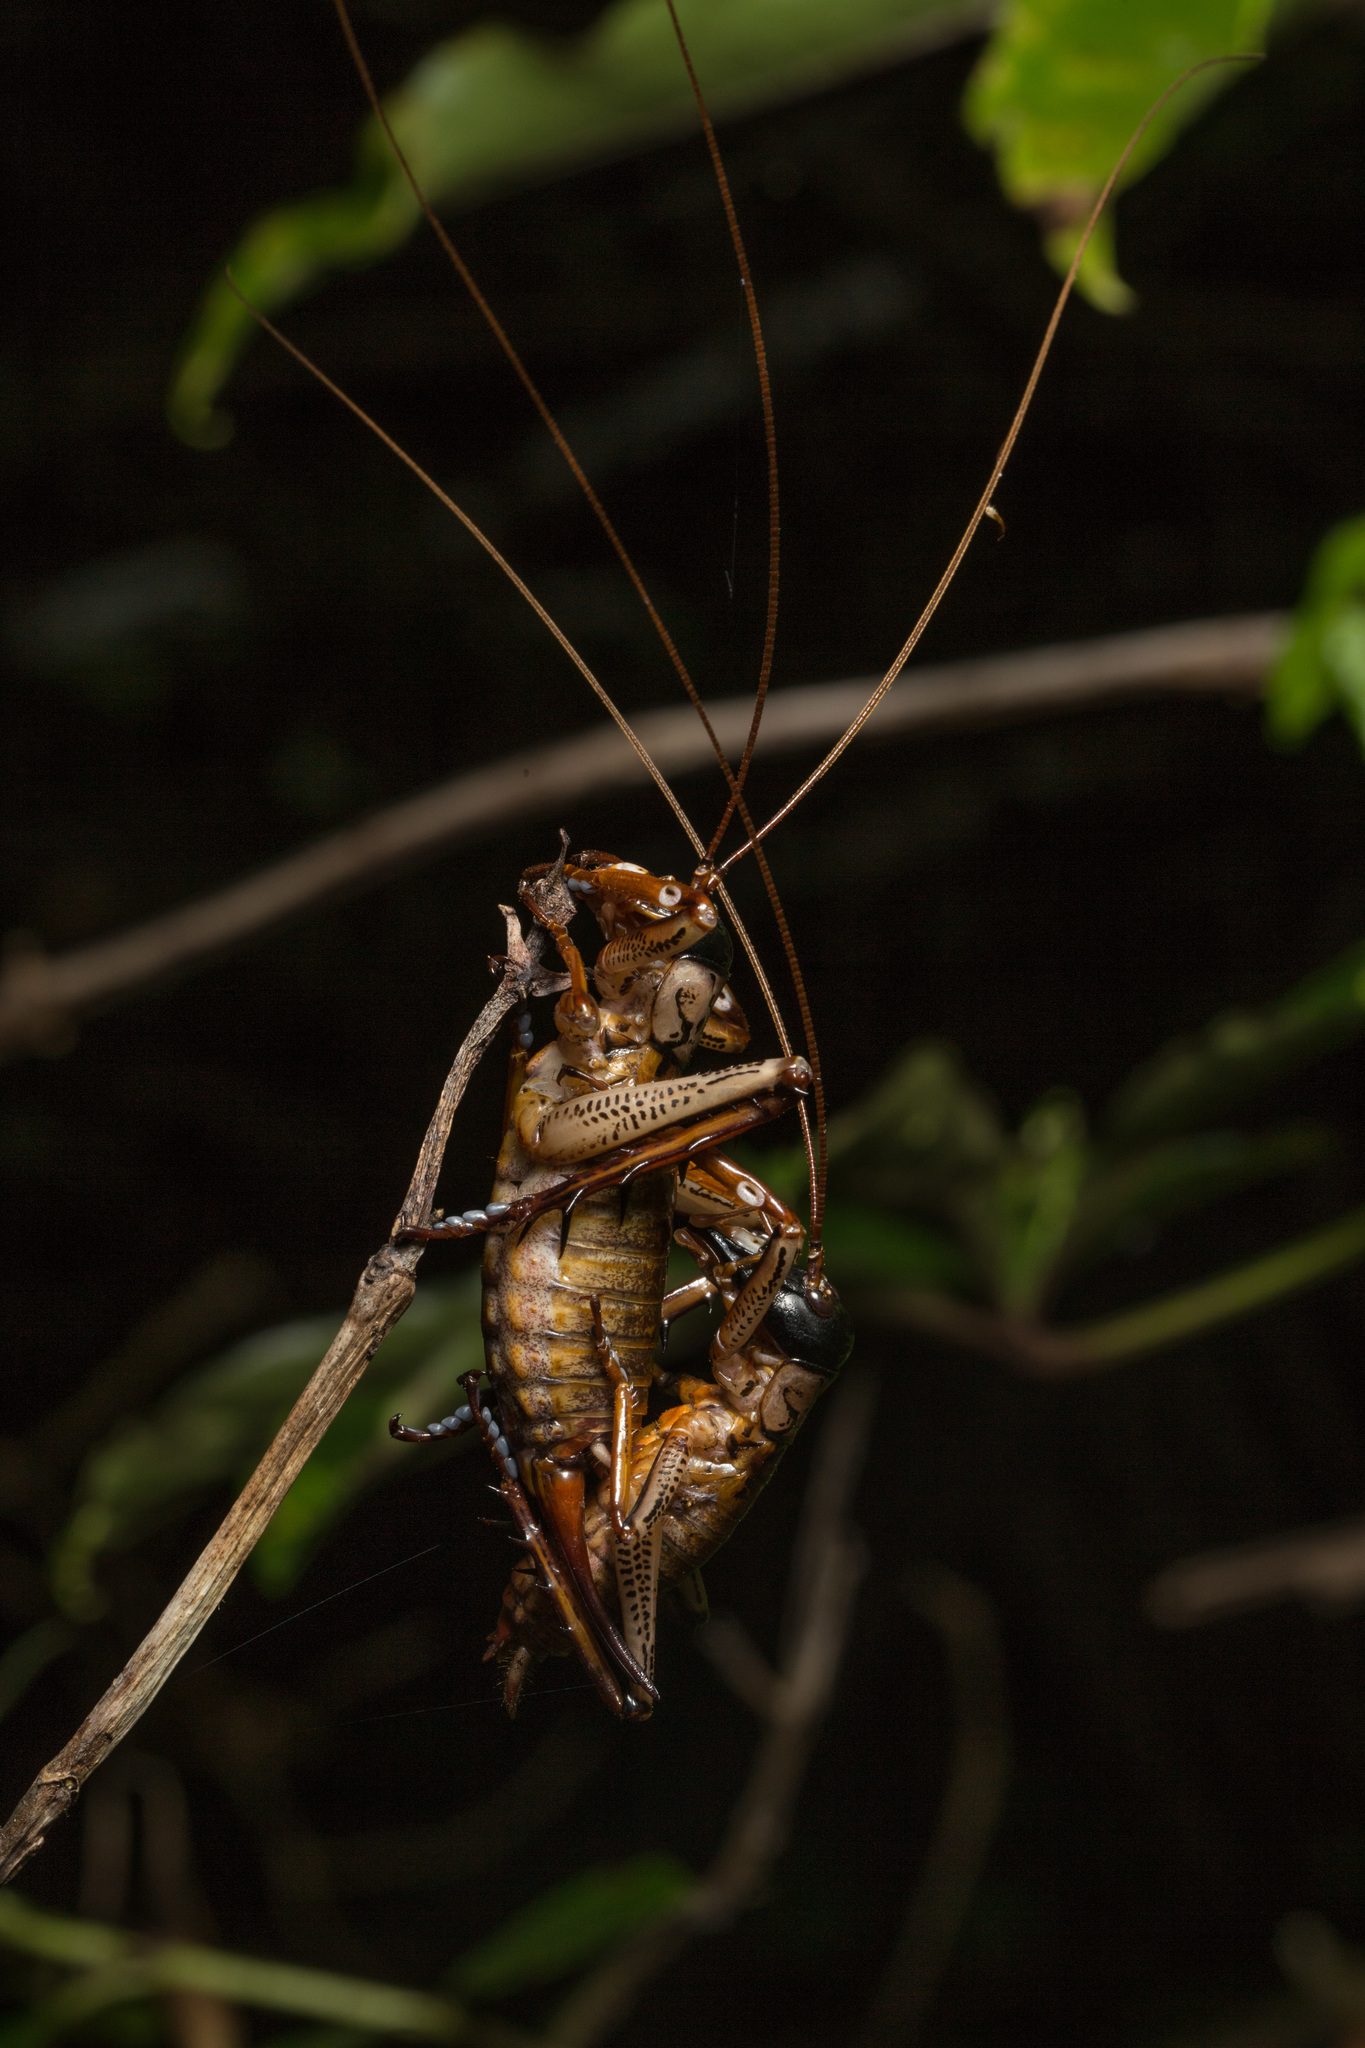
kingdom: Animalia
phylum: Arthropoda
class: Insecta
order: Orthoptera
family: Anostostomatidae
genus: Hemideina
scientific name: Hemideina thoracica
